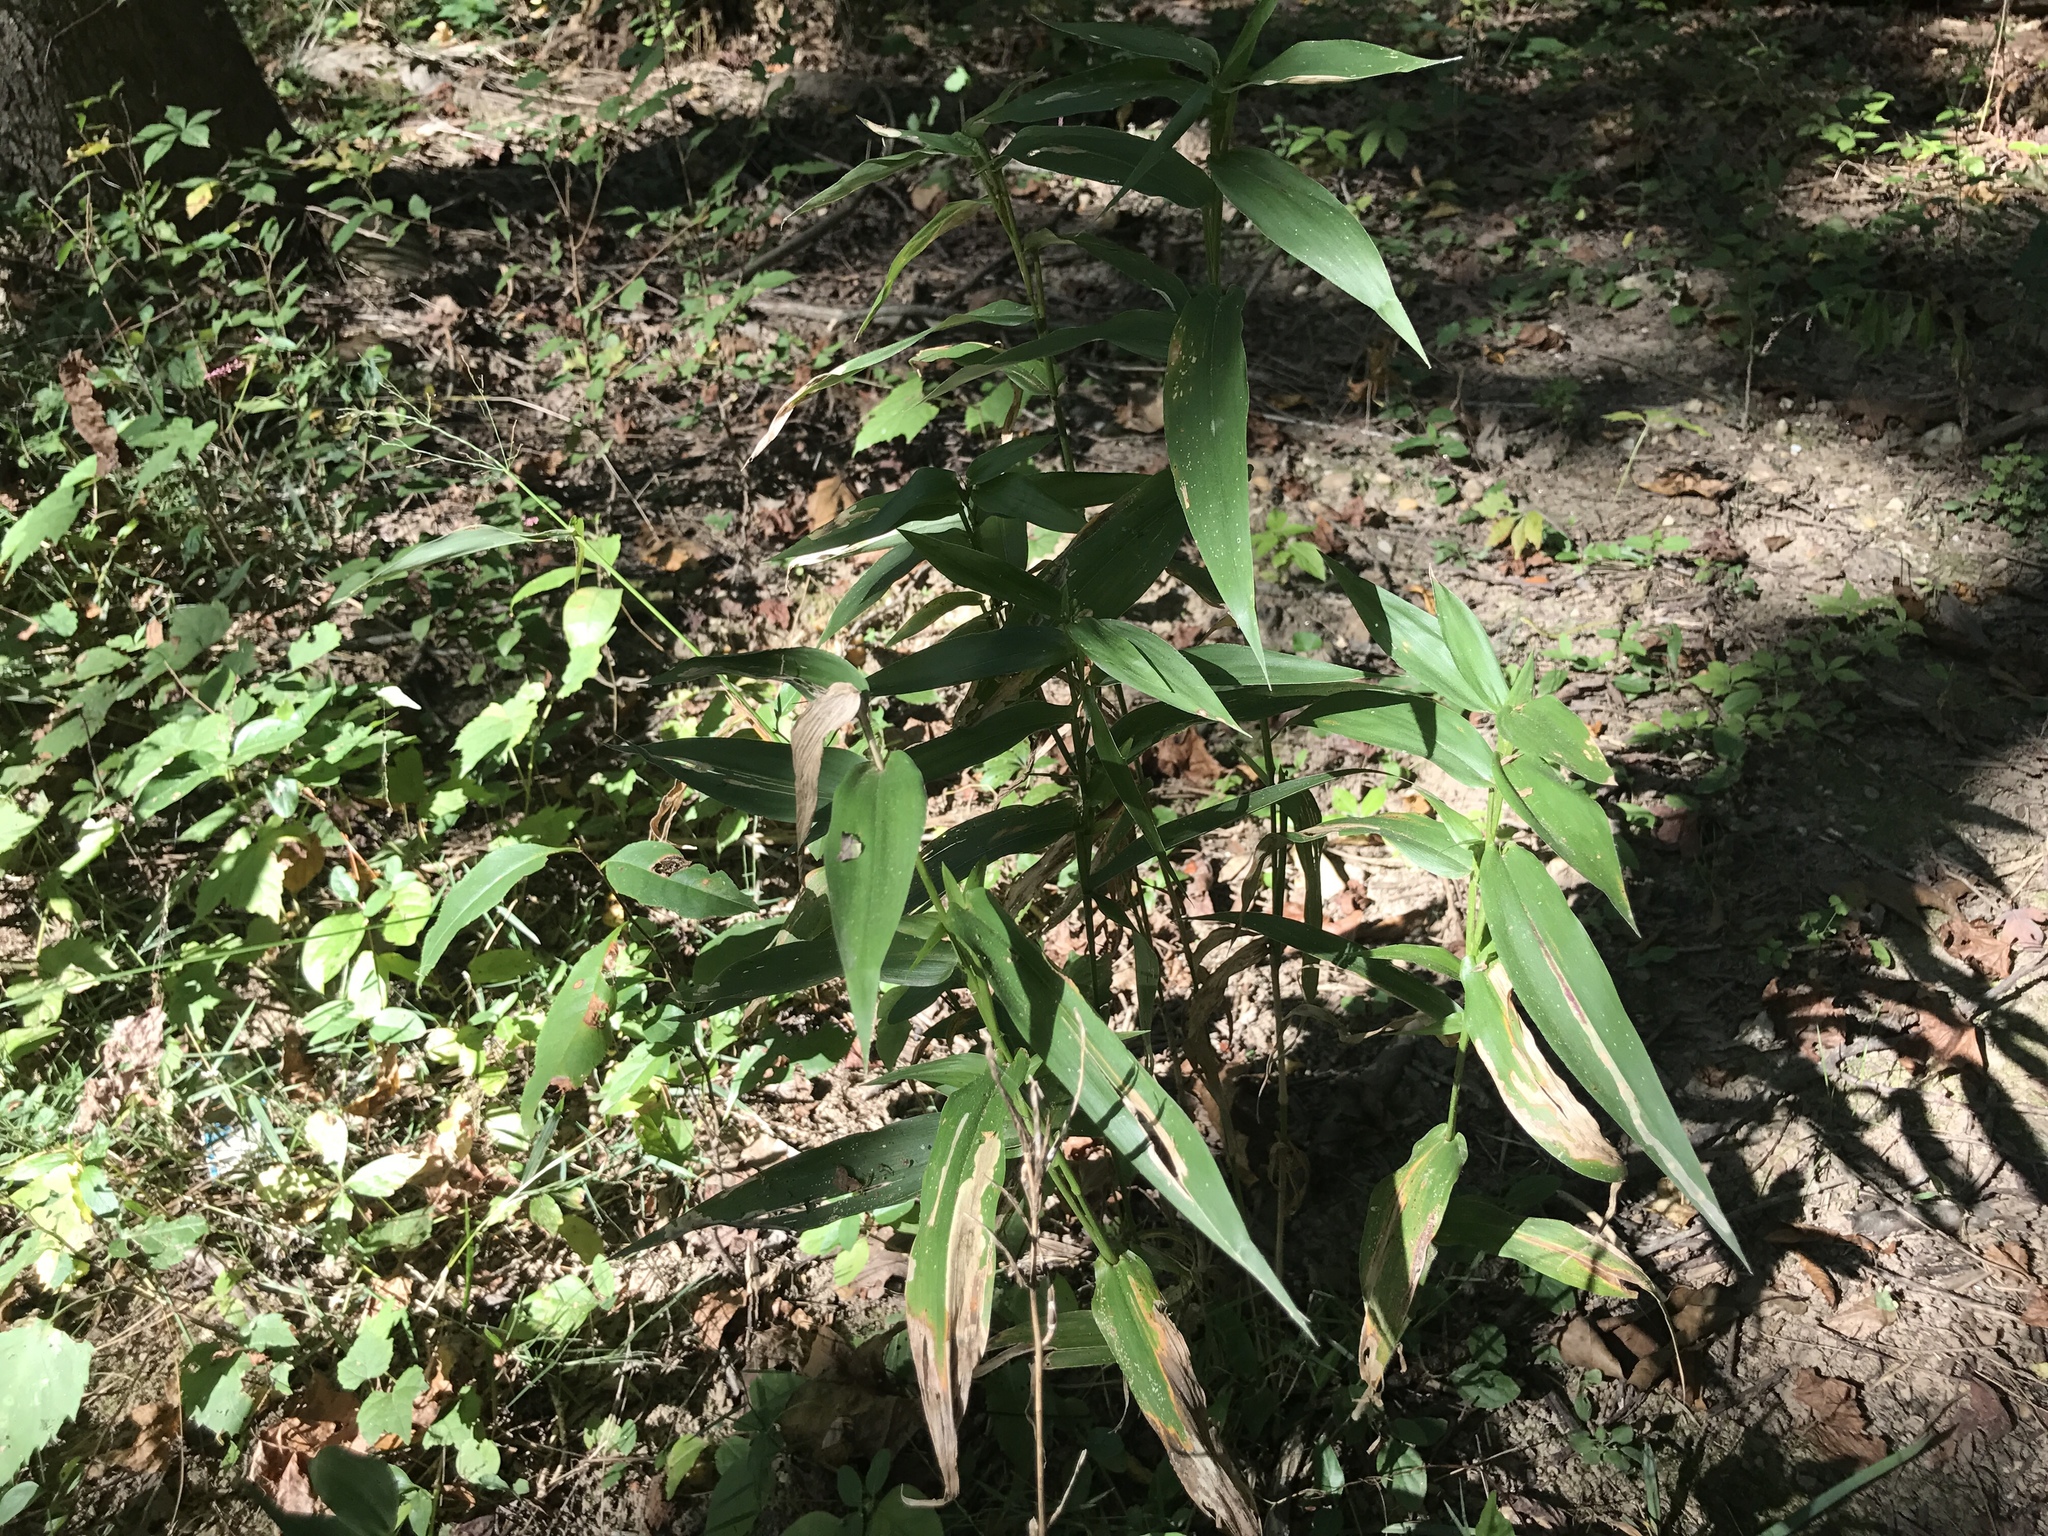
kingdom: Plantae
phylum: Tracheophyta
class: Liliopsida
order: Poales
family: Poaceae
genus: Dichanthelium
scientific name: Dichanthelium clandestinum
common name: Deer-tongue grass
